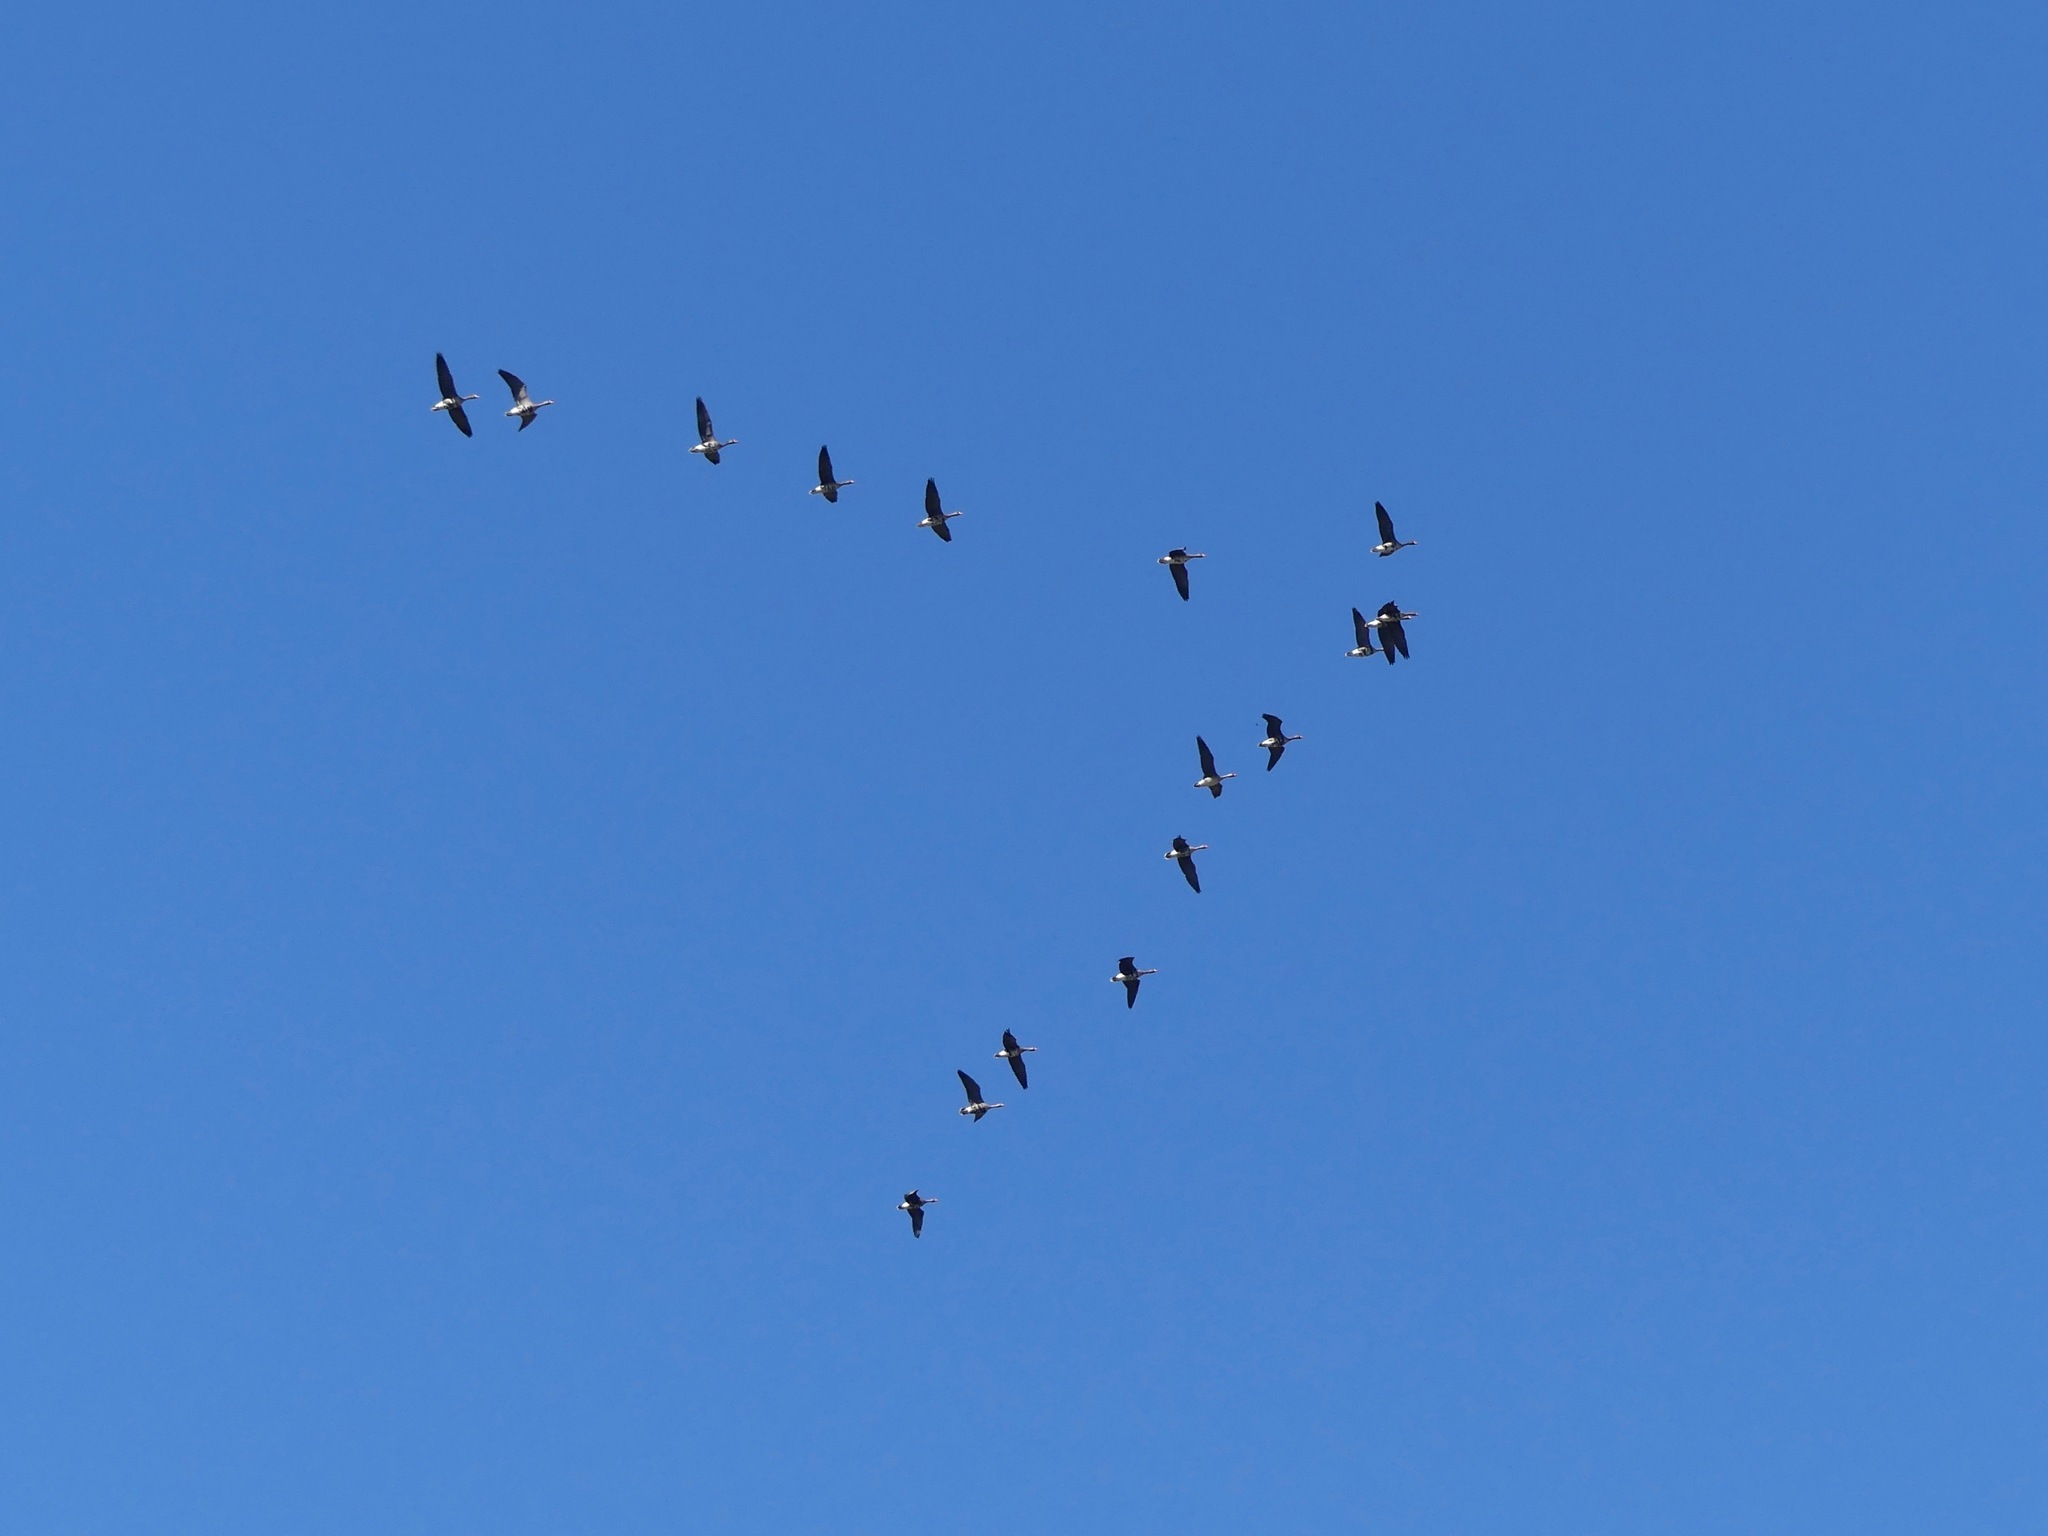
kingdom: Animalia
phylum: Chordata
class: Aves
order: Anseriformes
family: Anatidae
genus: Anser
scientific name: Anser albifrons
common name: Greater white-fronted goose
